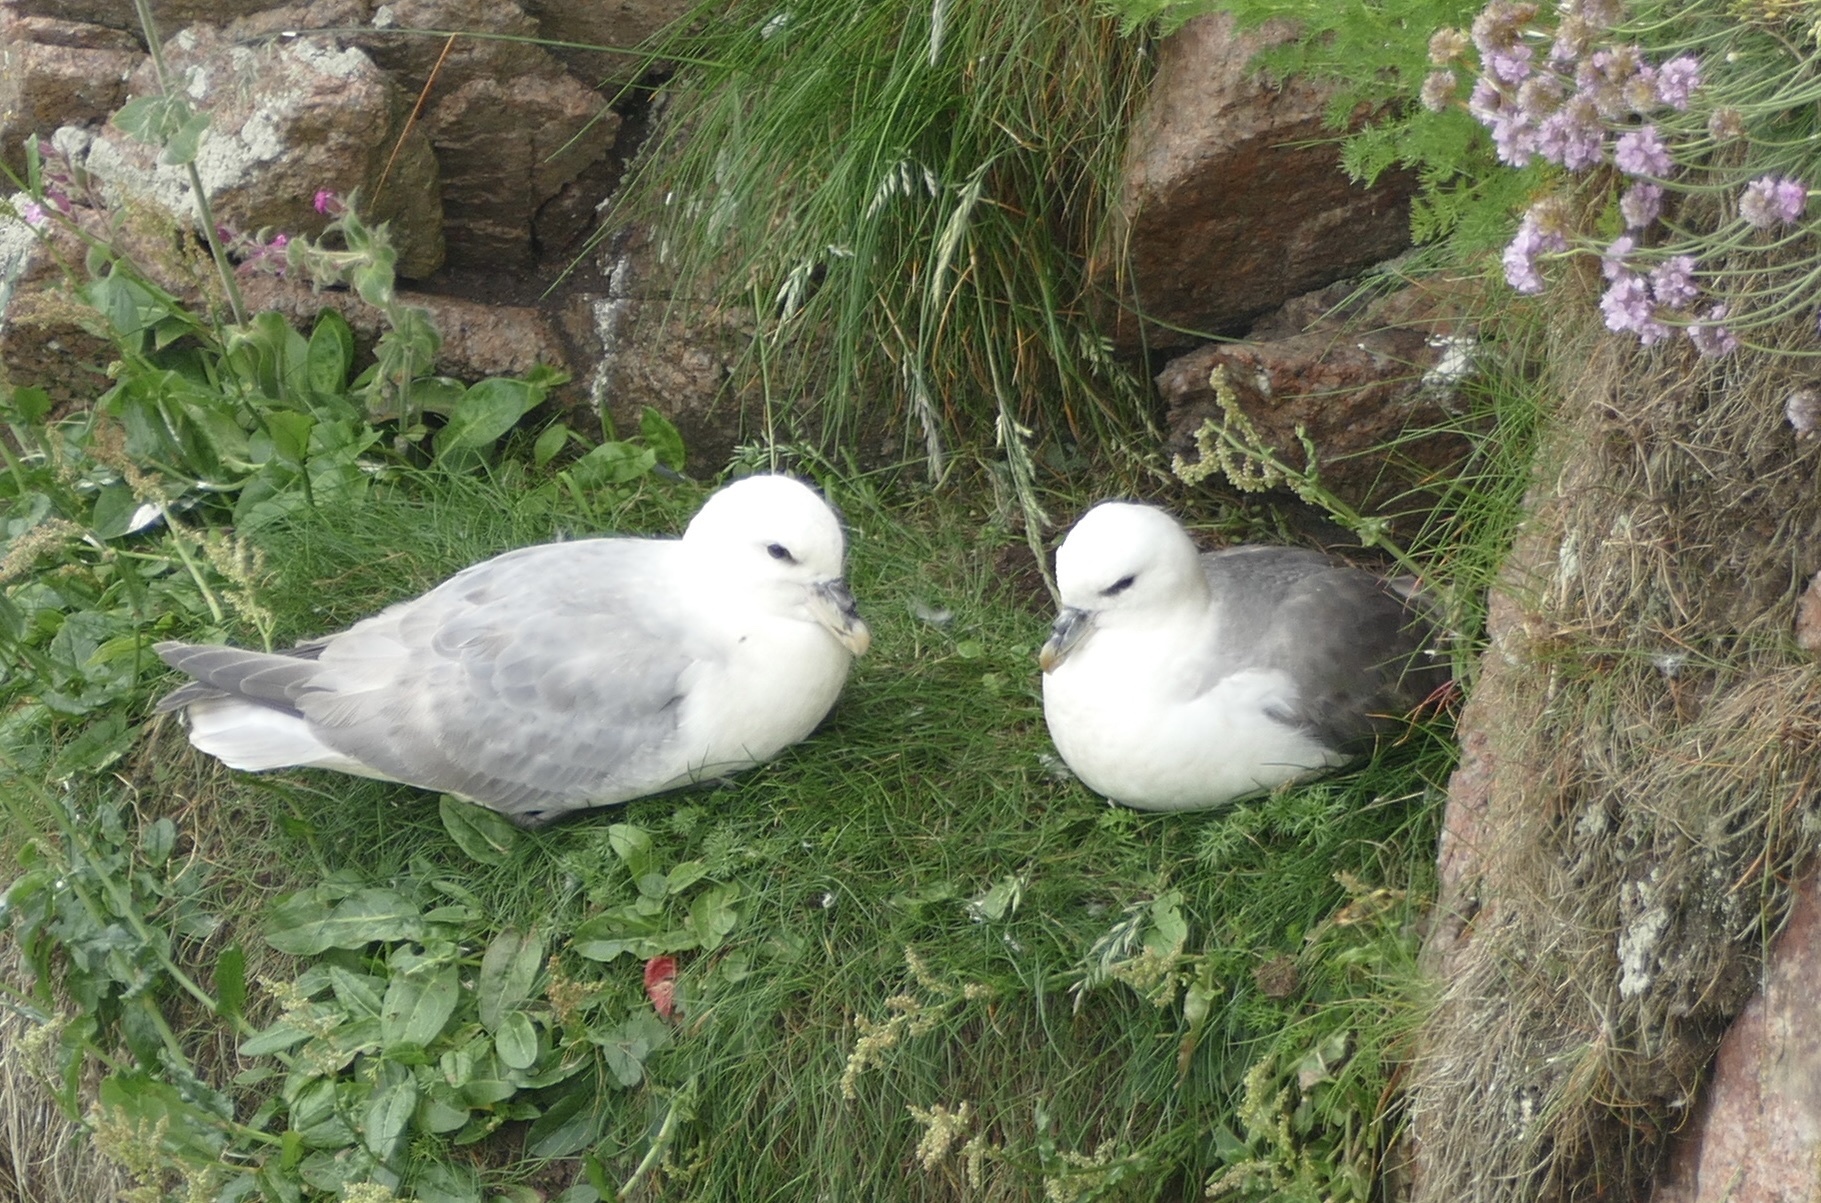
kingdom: Animalia
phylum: Chordata
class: Aves
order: Procellariiformes
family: Procellariidae
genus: Fulmarus
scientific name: Fulmarus glacialis
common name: Northern fulmar
